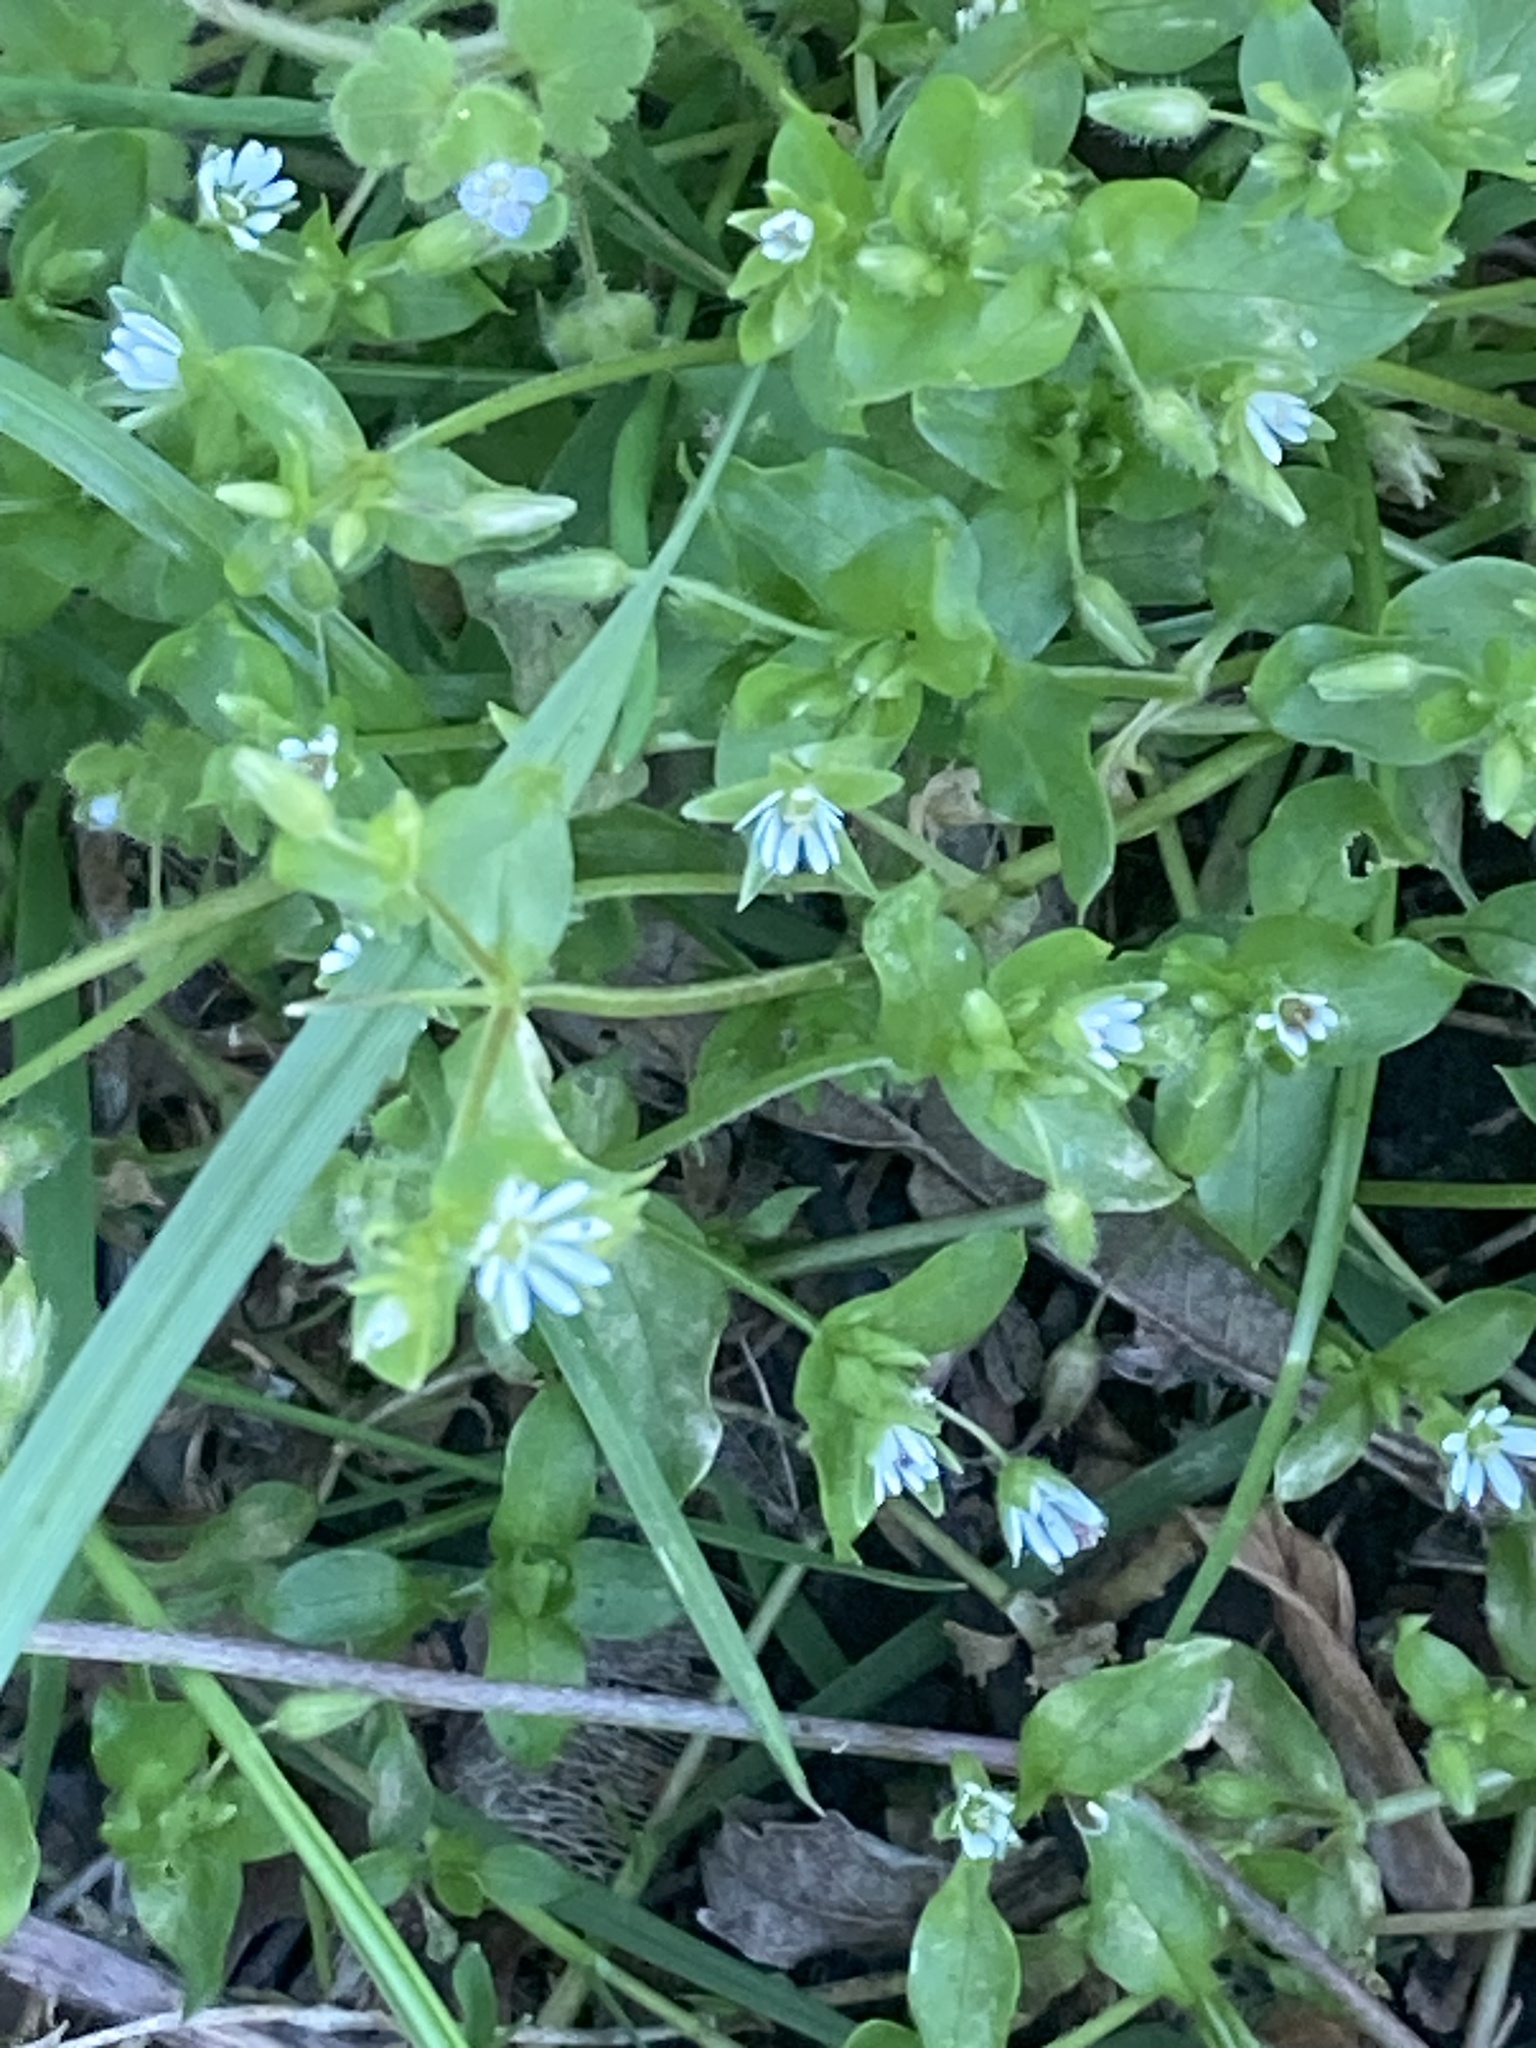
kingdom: Plantae
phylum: Tracheophyta
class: Magnoliopsida
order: Caryophyllales
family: Caryophyllaceae
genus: Stellaria
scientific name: Stellaria media
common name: Common chickweed
